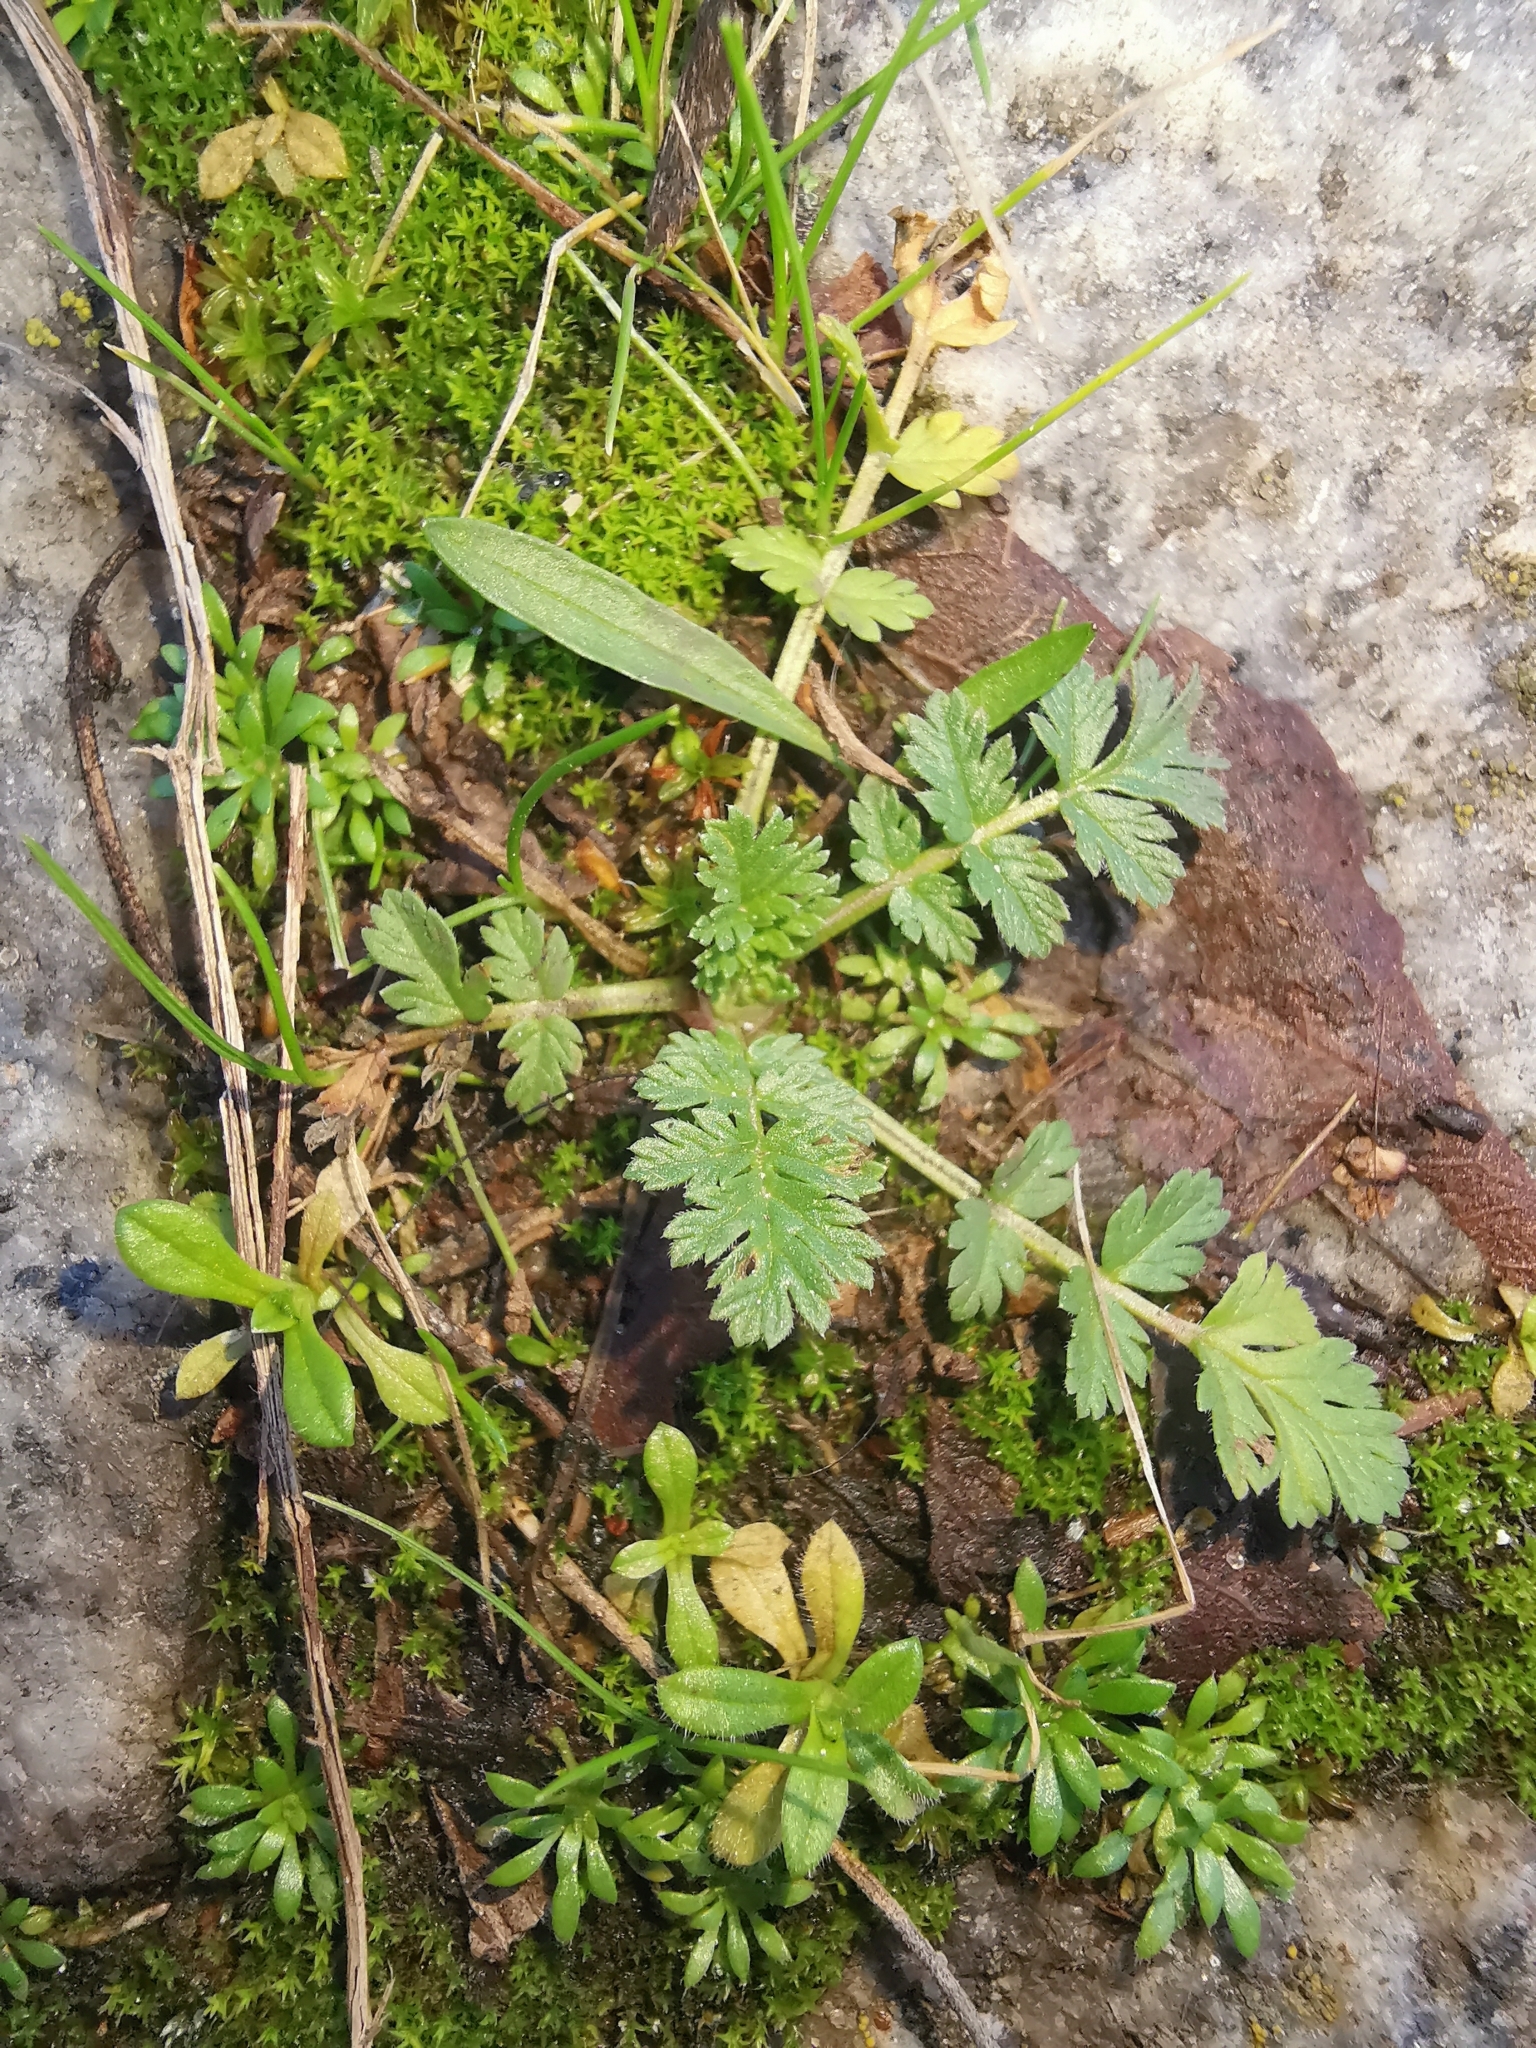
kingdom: Plantae
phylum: Tracheophyta
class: Magnoliopsida
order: Geraniales
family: Geraniaceae
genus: Erodium
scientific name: Erodium cicutarium
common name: Common stork's-bill
